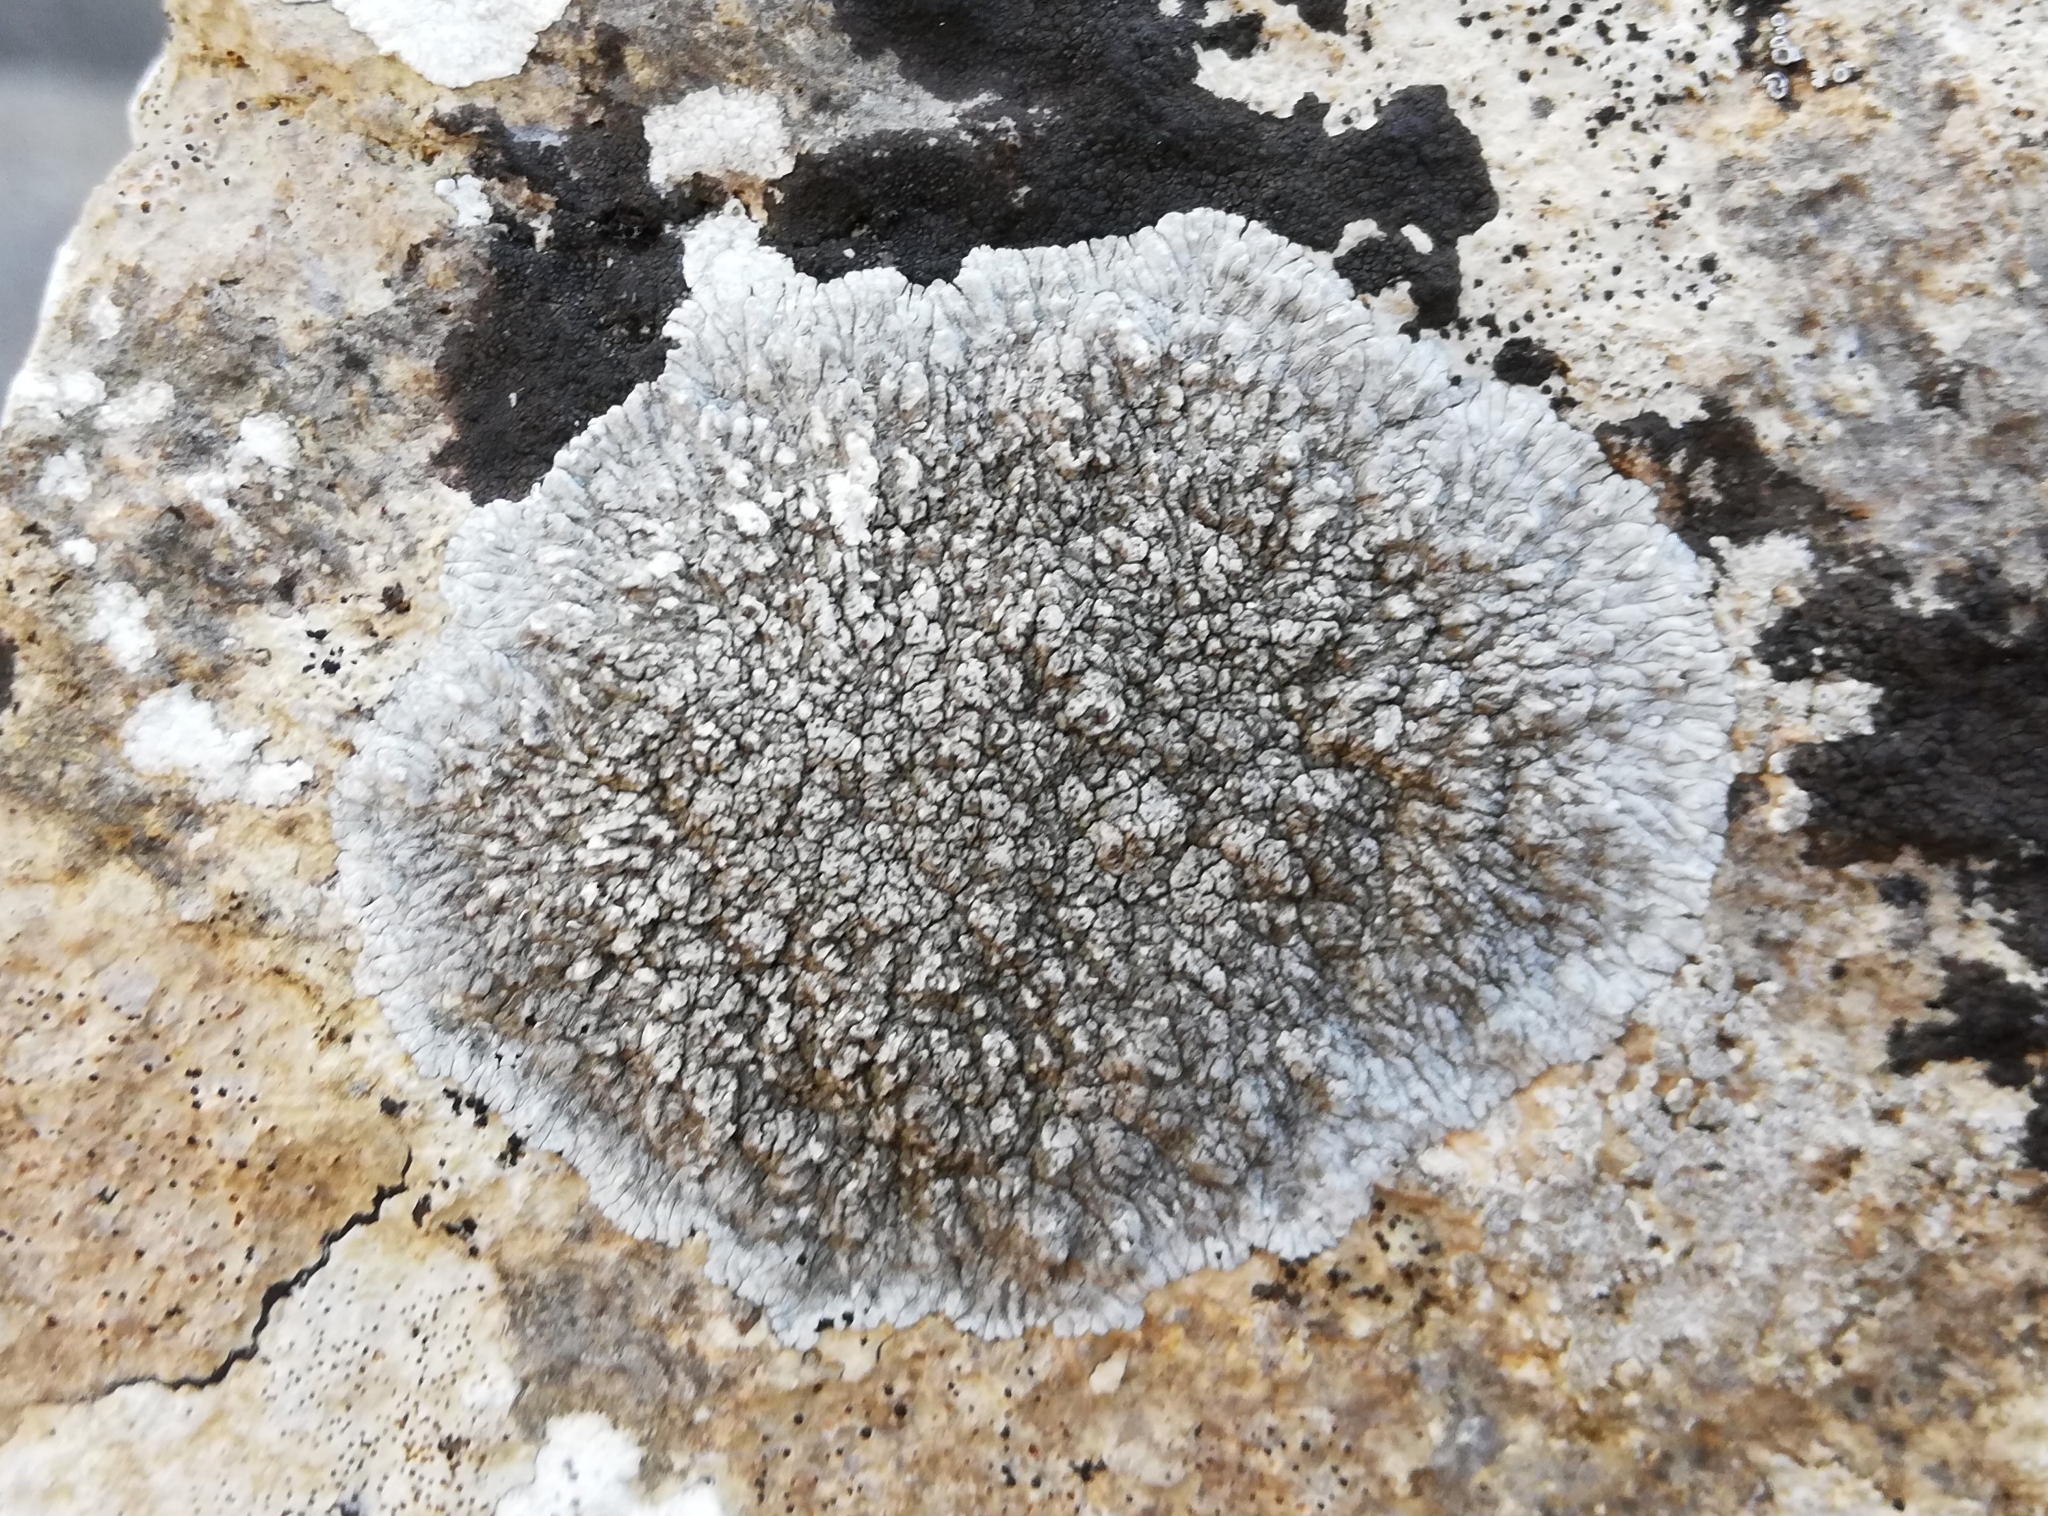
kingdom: Fungi
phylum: Ascomycota
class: Lecanoromycetes
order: Pertusariales
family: Megasporaceae
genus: Lobothallia
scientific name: Lobothallia radiosa
